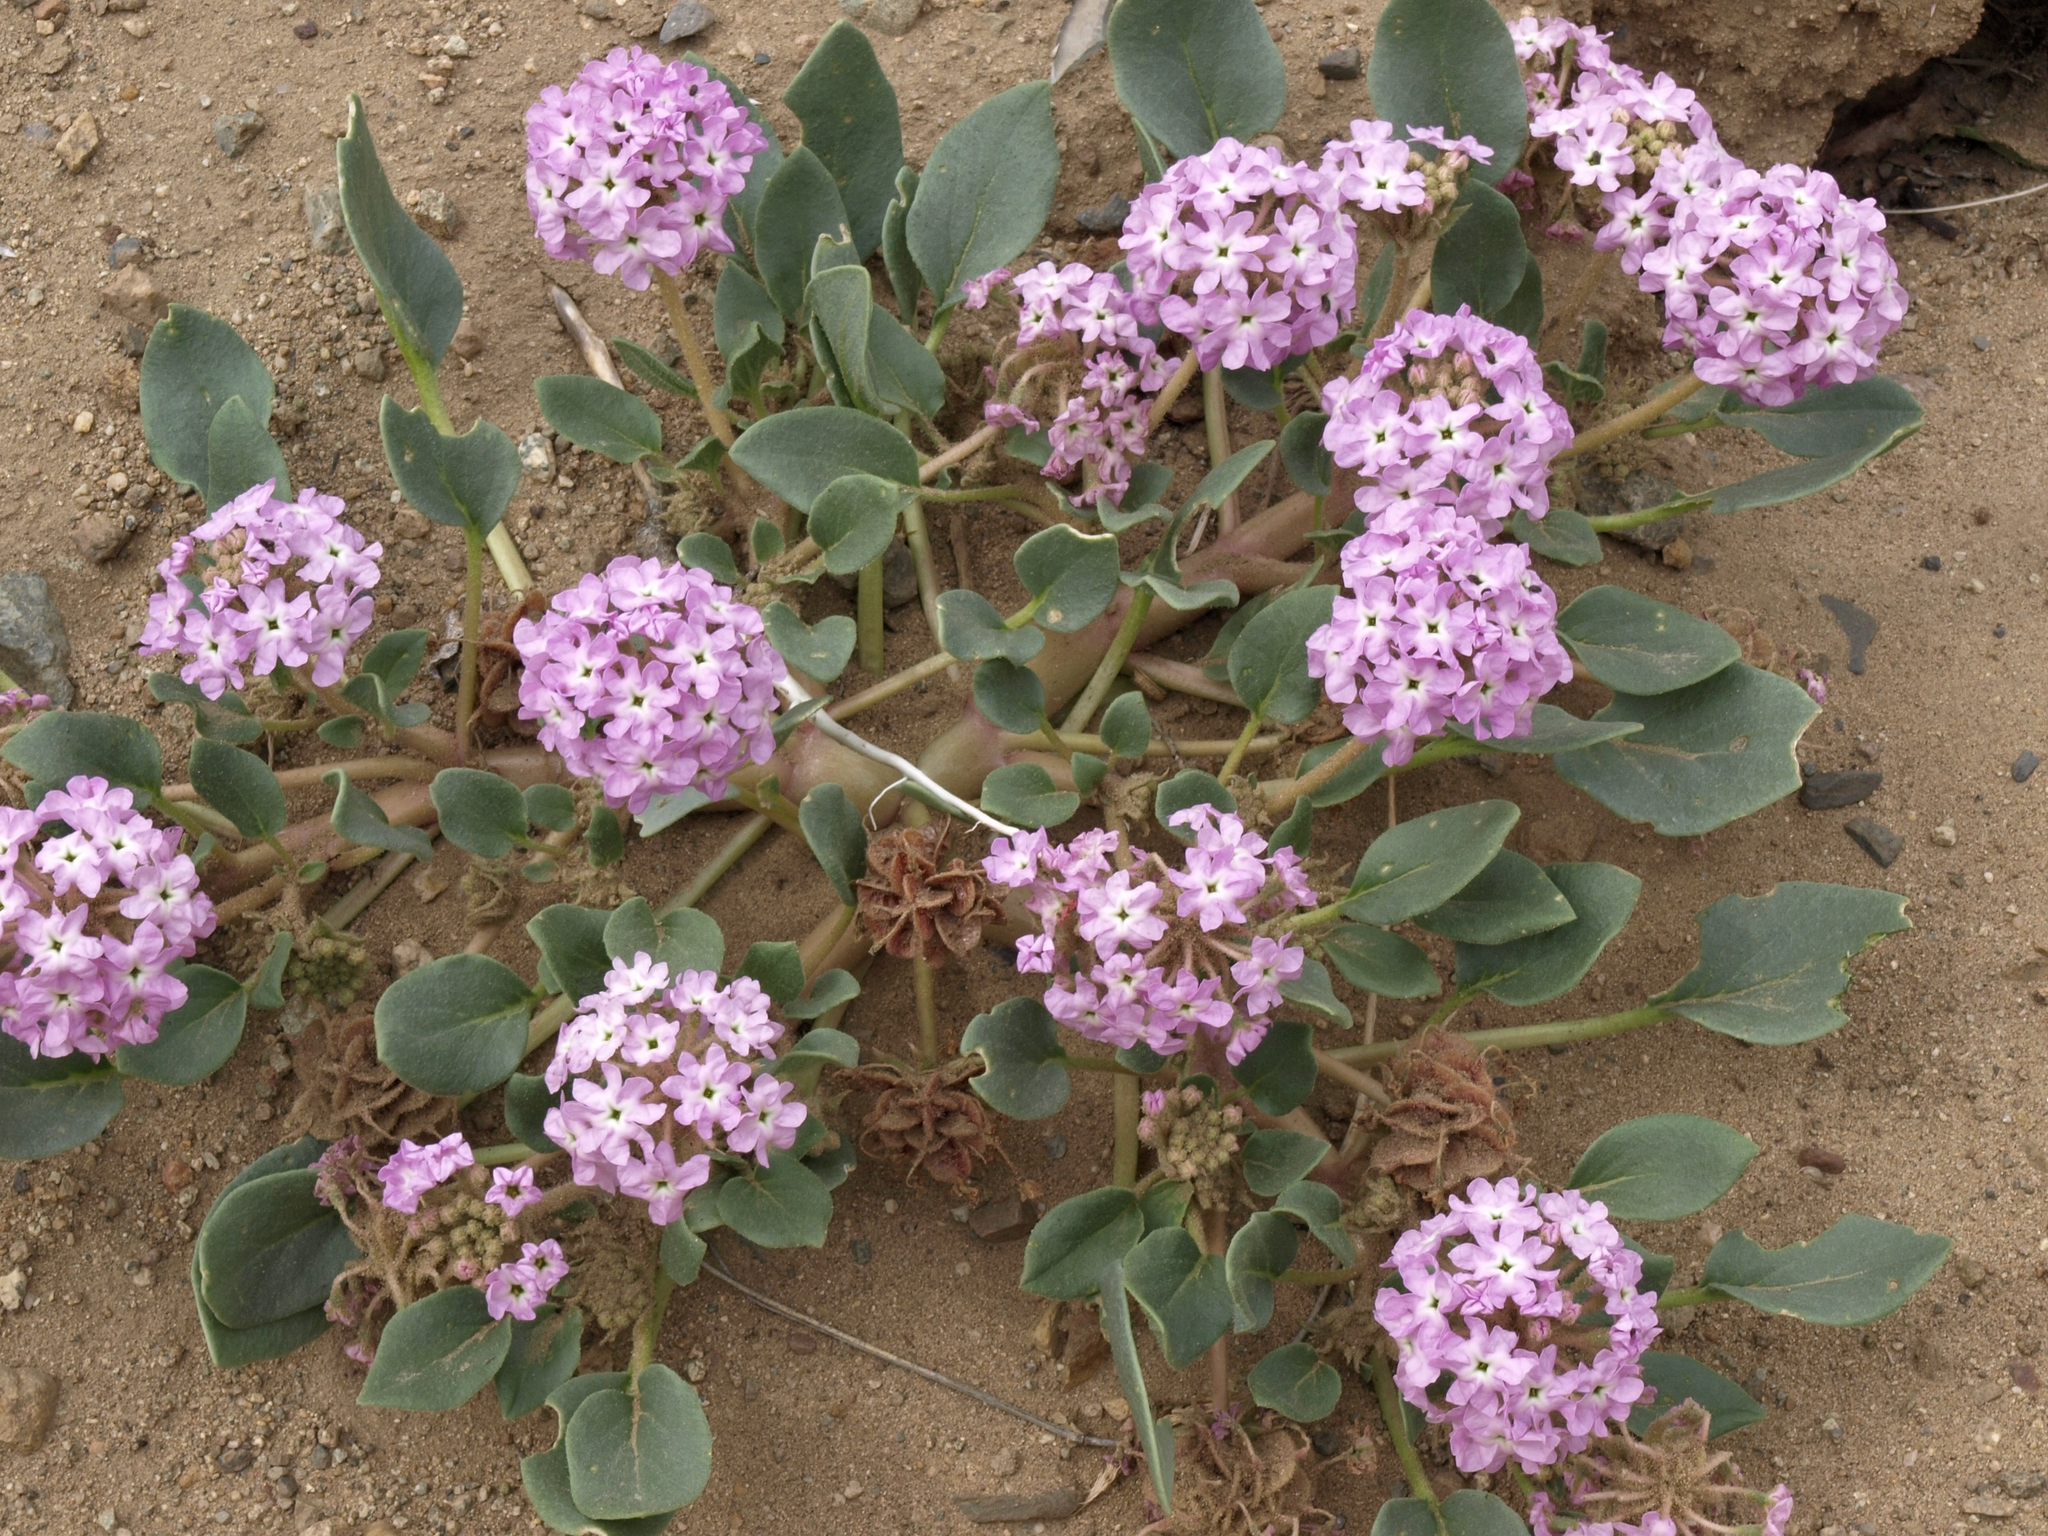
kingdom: Plantae
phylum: Tracheophyta
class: Magnoliopsida
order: Caryophyllales
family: Nyctaginaceae
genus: Tripterocalyx
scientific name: Tripterocalyx crux-maltae
